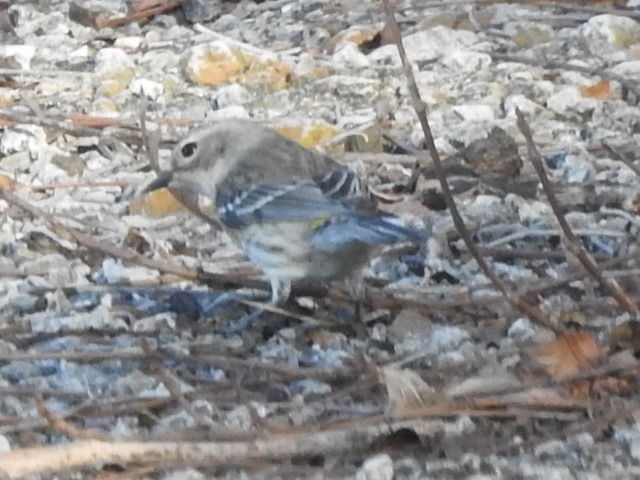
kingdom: Animalia
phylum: Chordata
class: Aves
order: Passeriformes
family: Parulidae
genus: Setophaga
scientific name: Setophaga coronata
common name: Myrtle warbler
